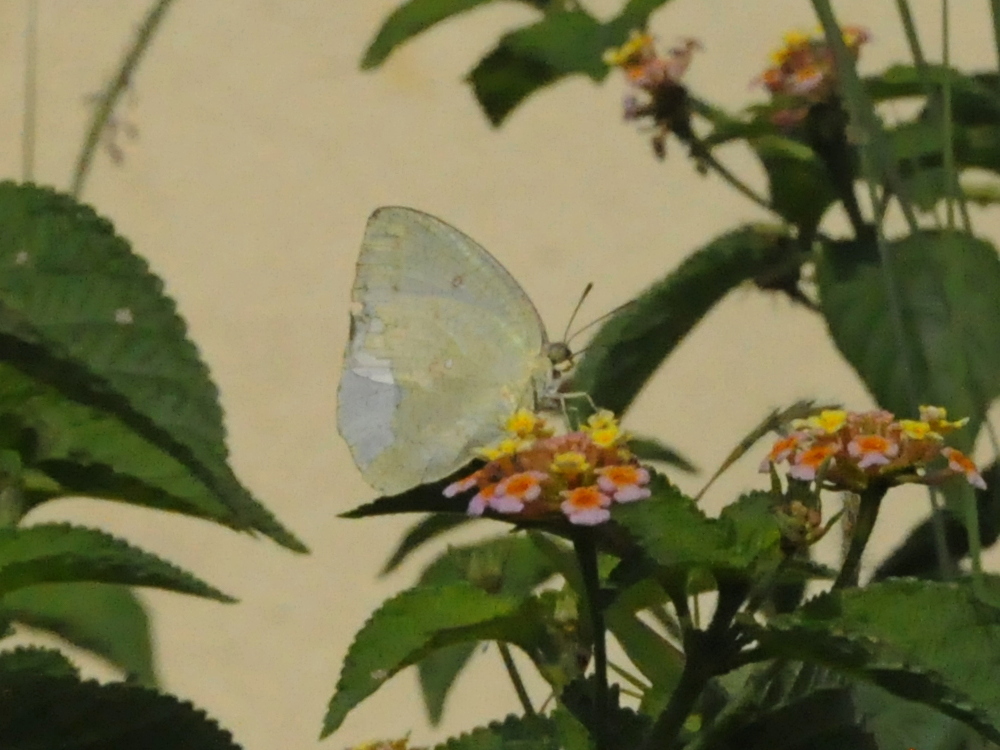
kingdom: Animalia
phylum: Arthropoda
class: Insecta
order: Lepidoptera
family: Pieridae
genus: Catopsilia
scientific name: Catopsilia pomona
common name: Common emigrant
